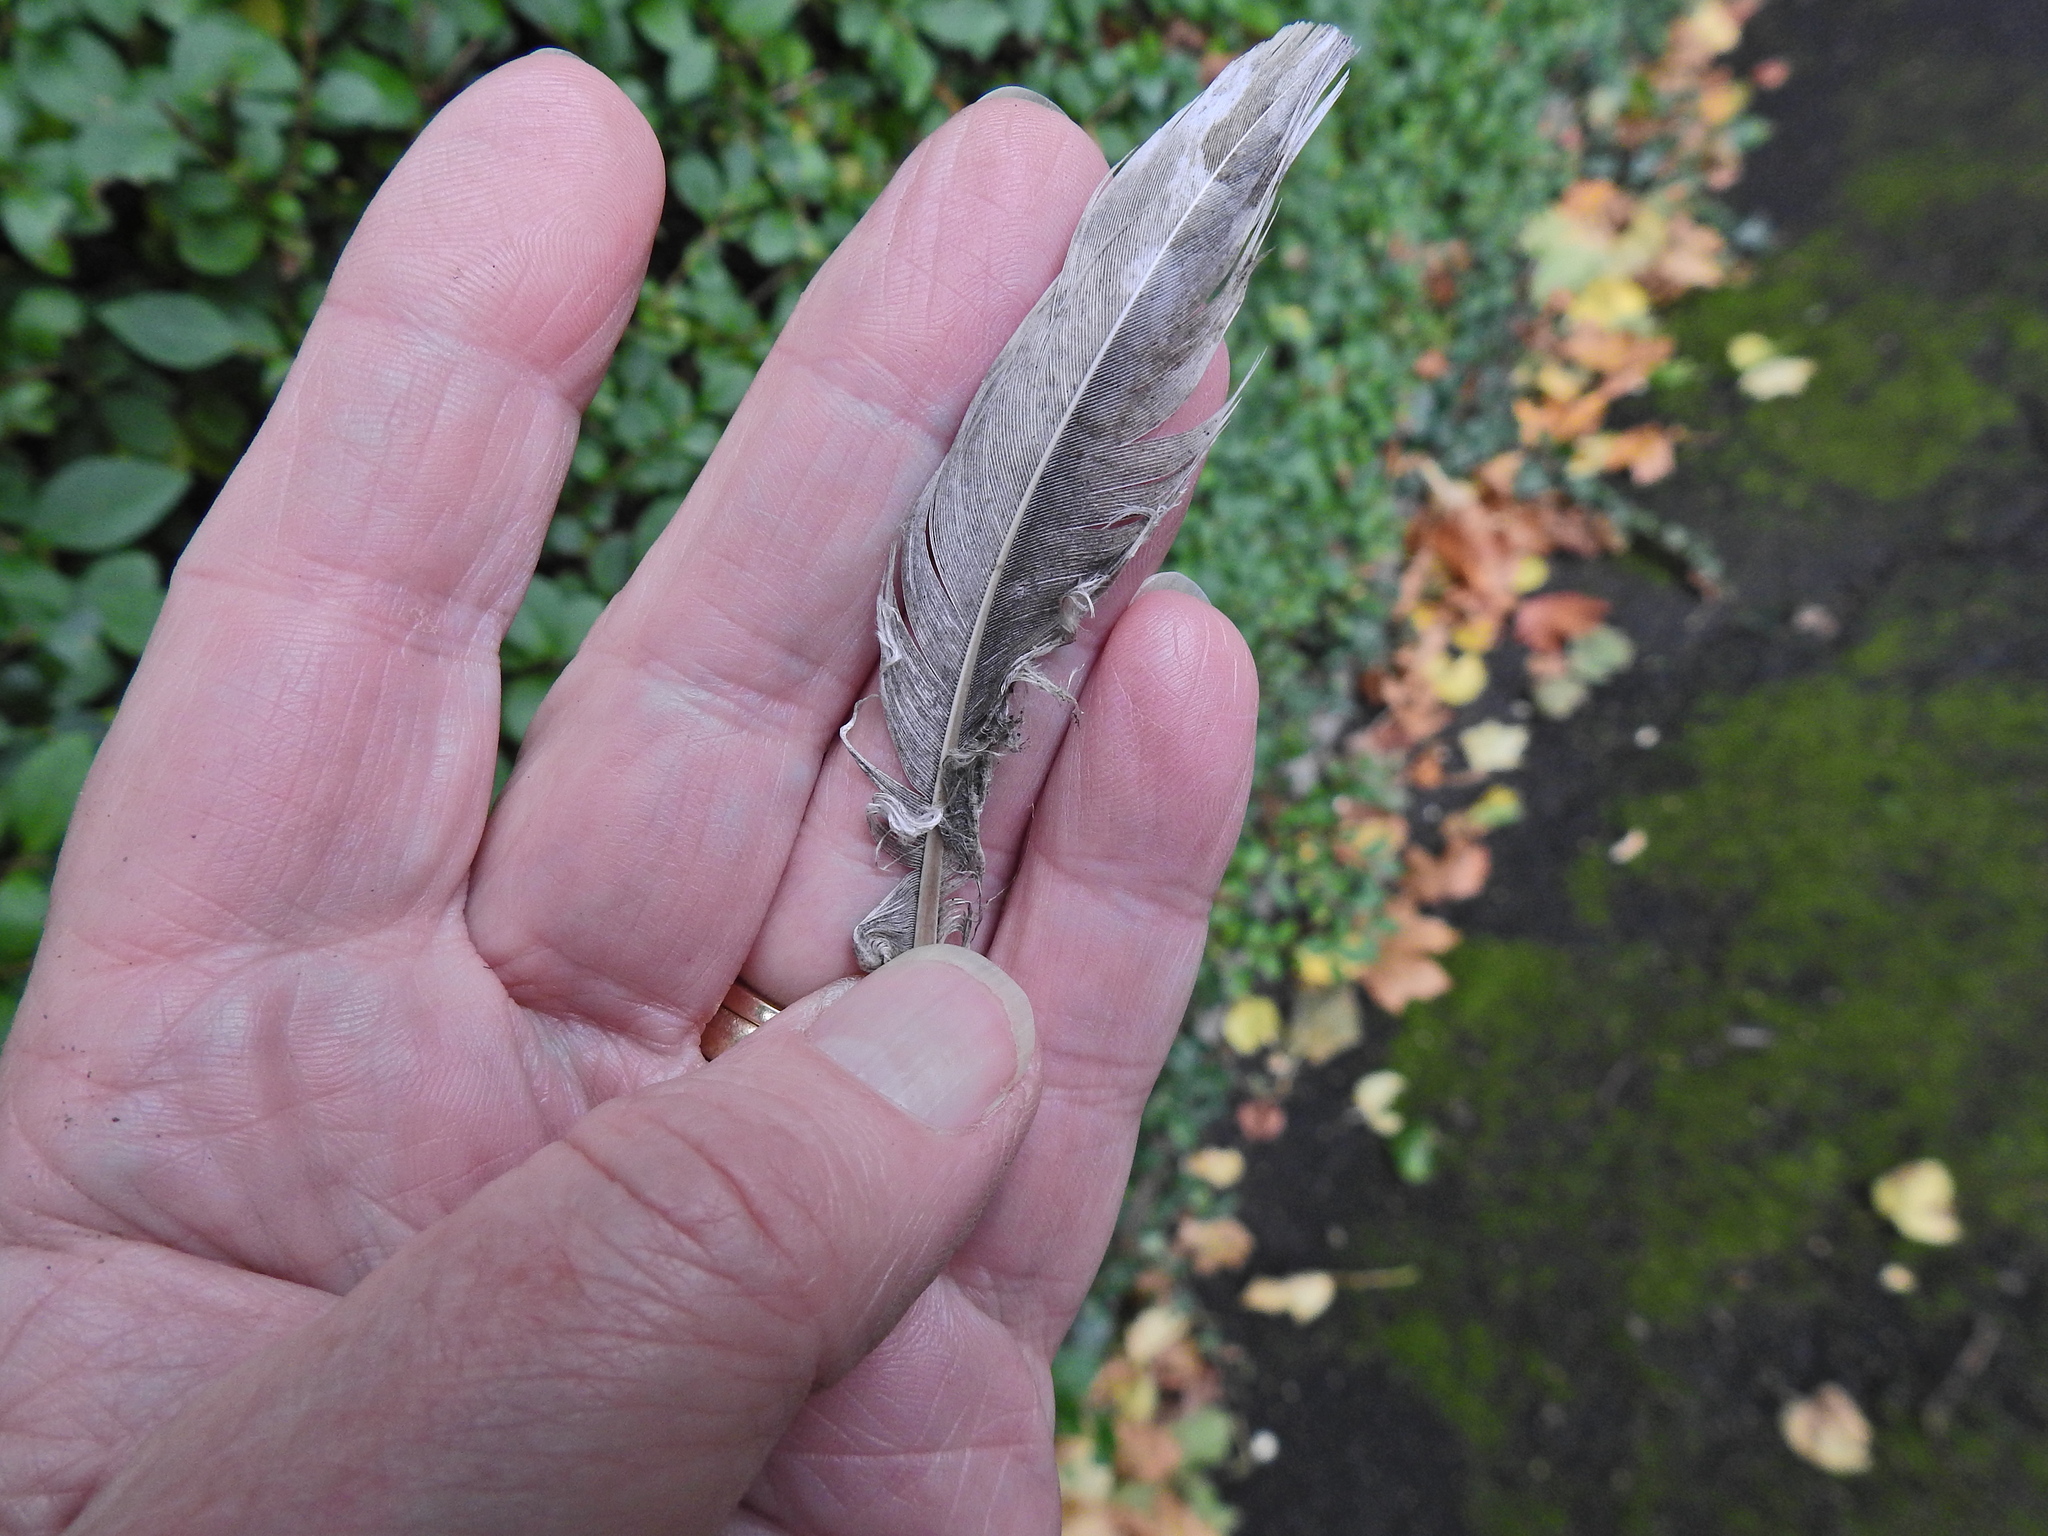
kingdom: Animalia
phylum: Chordata
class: Aves
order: Columbiformes
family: Columbidae
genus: Columba
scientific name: Columba palumbus
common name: Common wood pigeon
